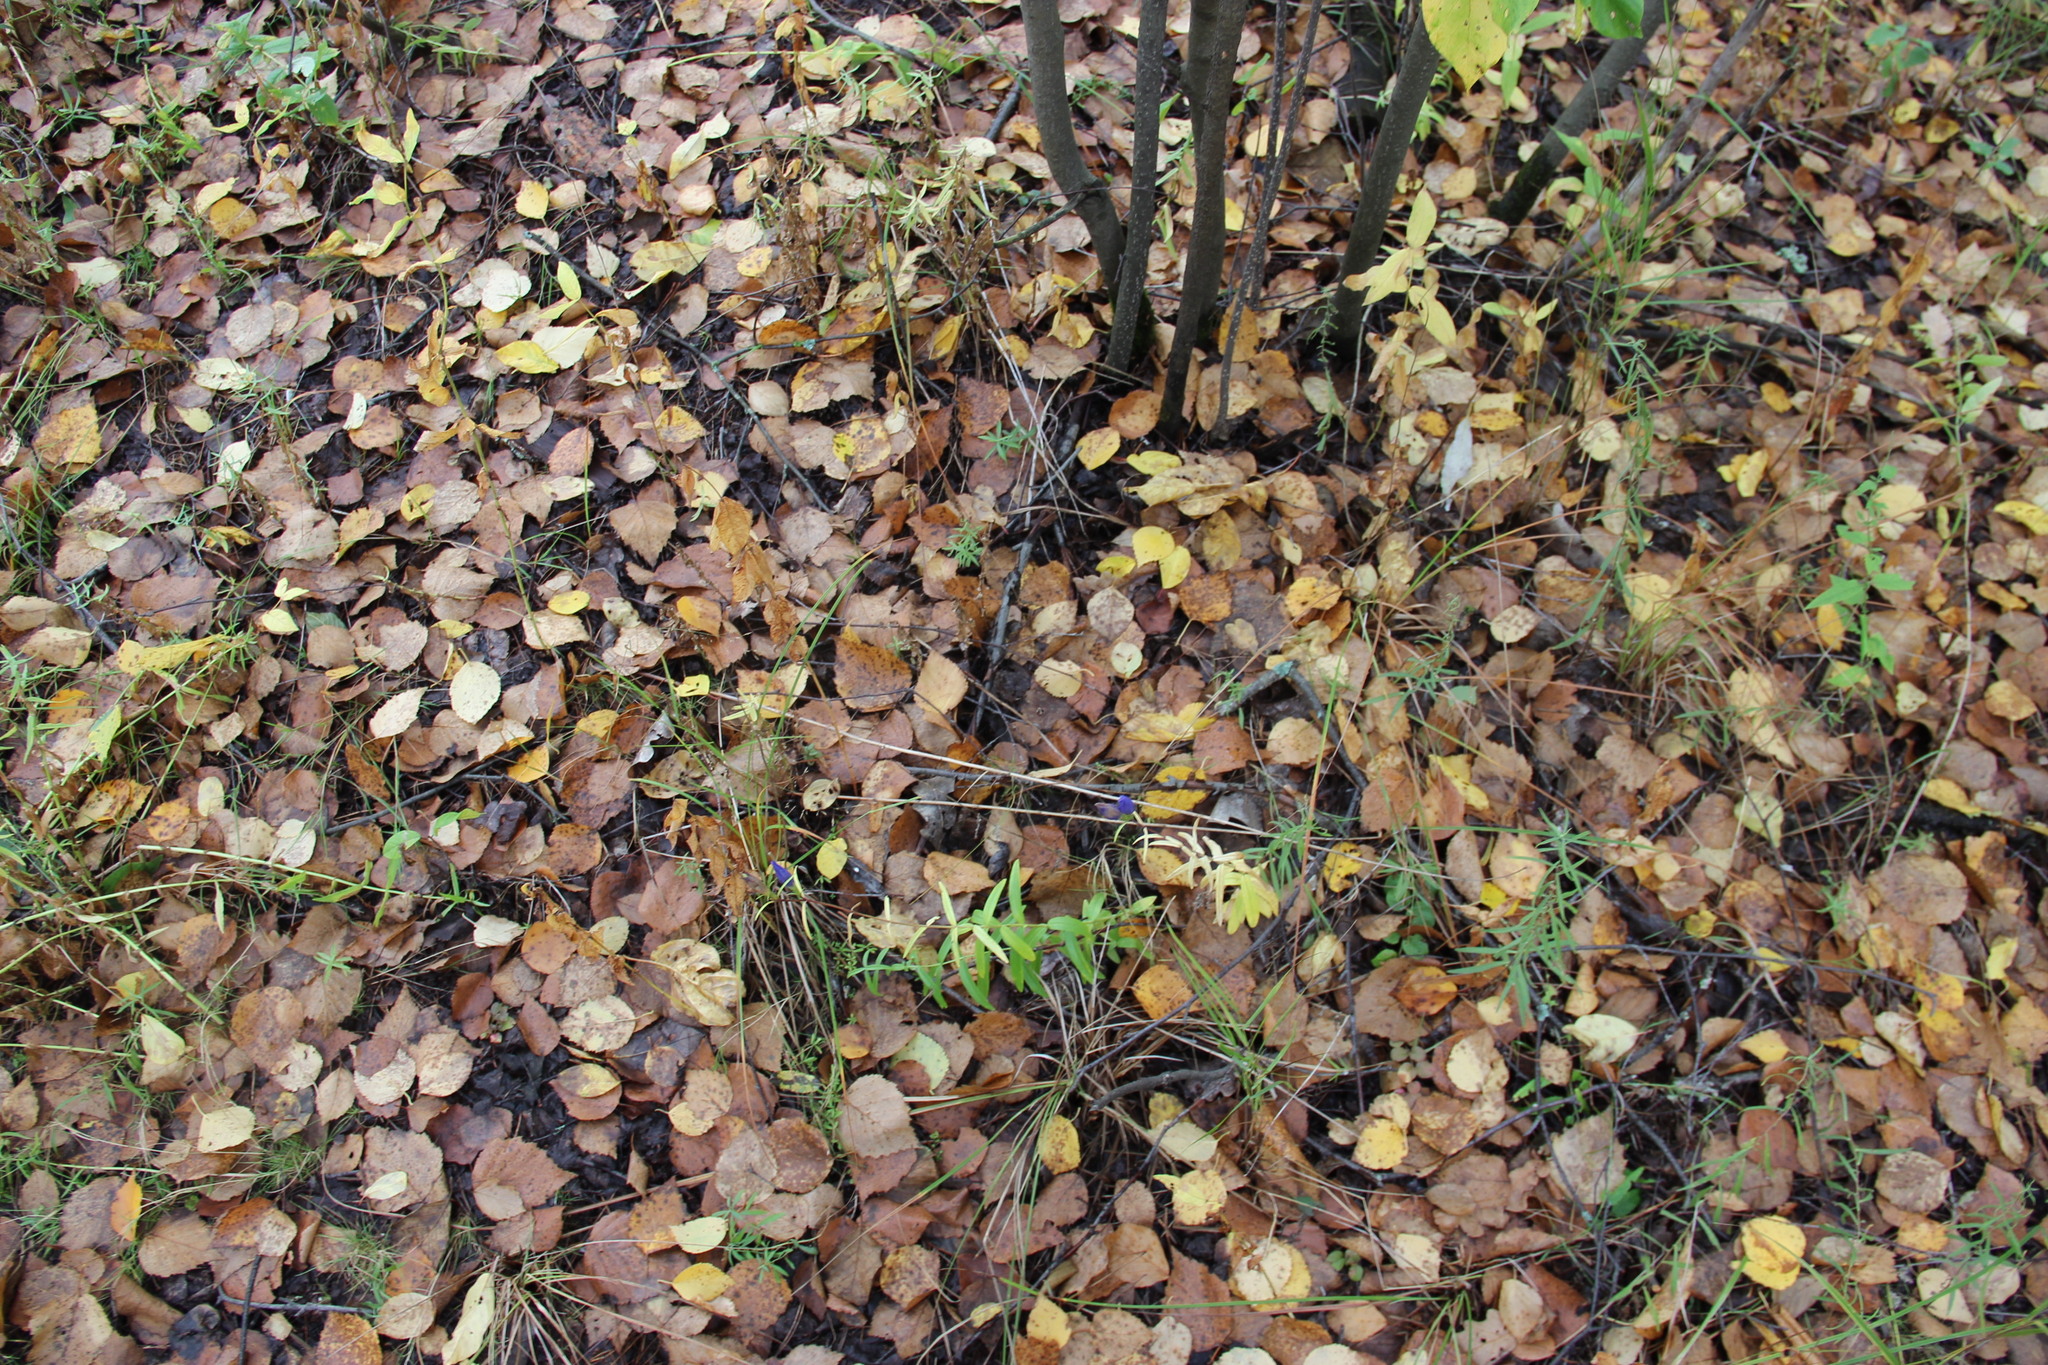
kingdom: Plantae
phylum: Tracheophyta
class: Magnoliopsida
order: Gentianales
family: Gentianaceae
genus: Gentiana
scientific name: Gentiana pneumonanthe
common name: Marsh gentian
